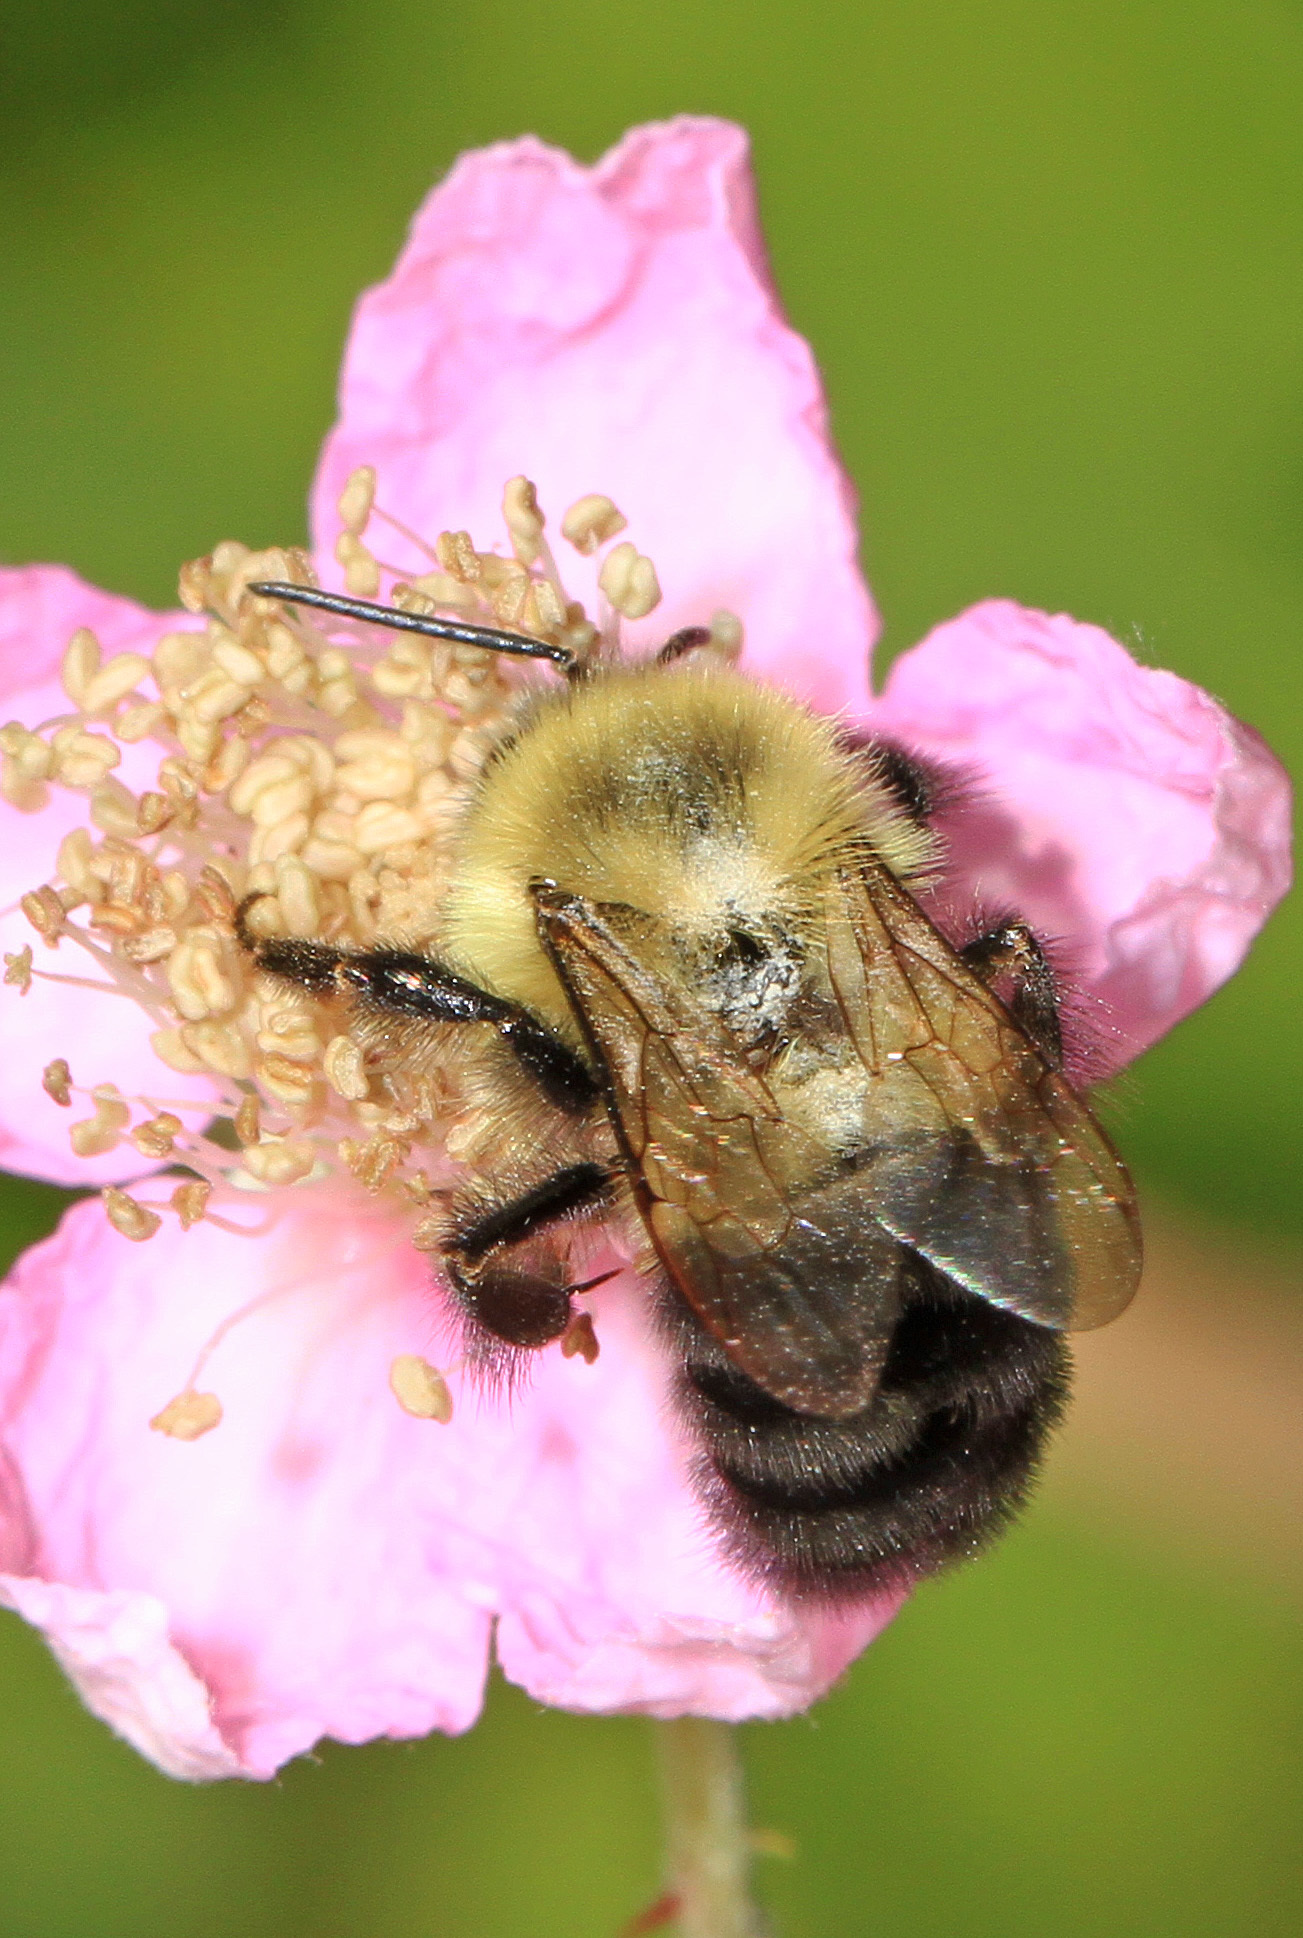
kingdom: Animalia
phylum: Arthropoda
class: Insecta
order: Hymenoptera
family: Apidae
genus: Bombus
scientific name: Bombus impatiens
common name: Common eastern bumble bee
